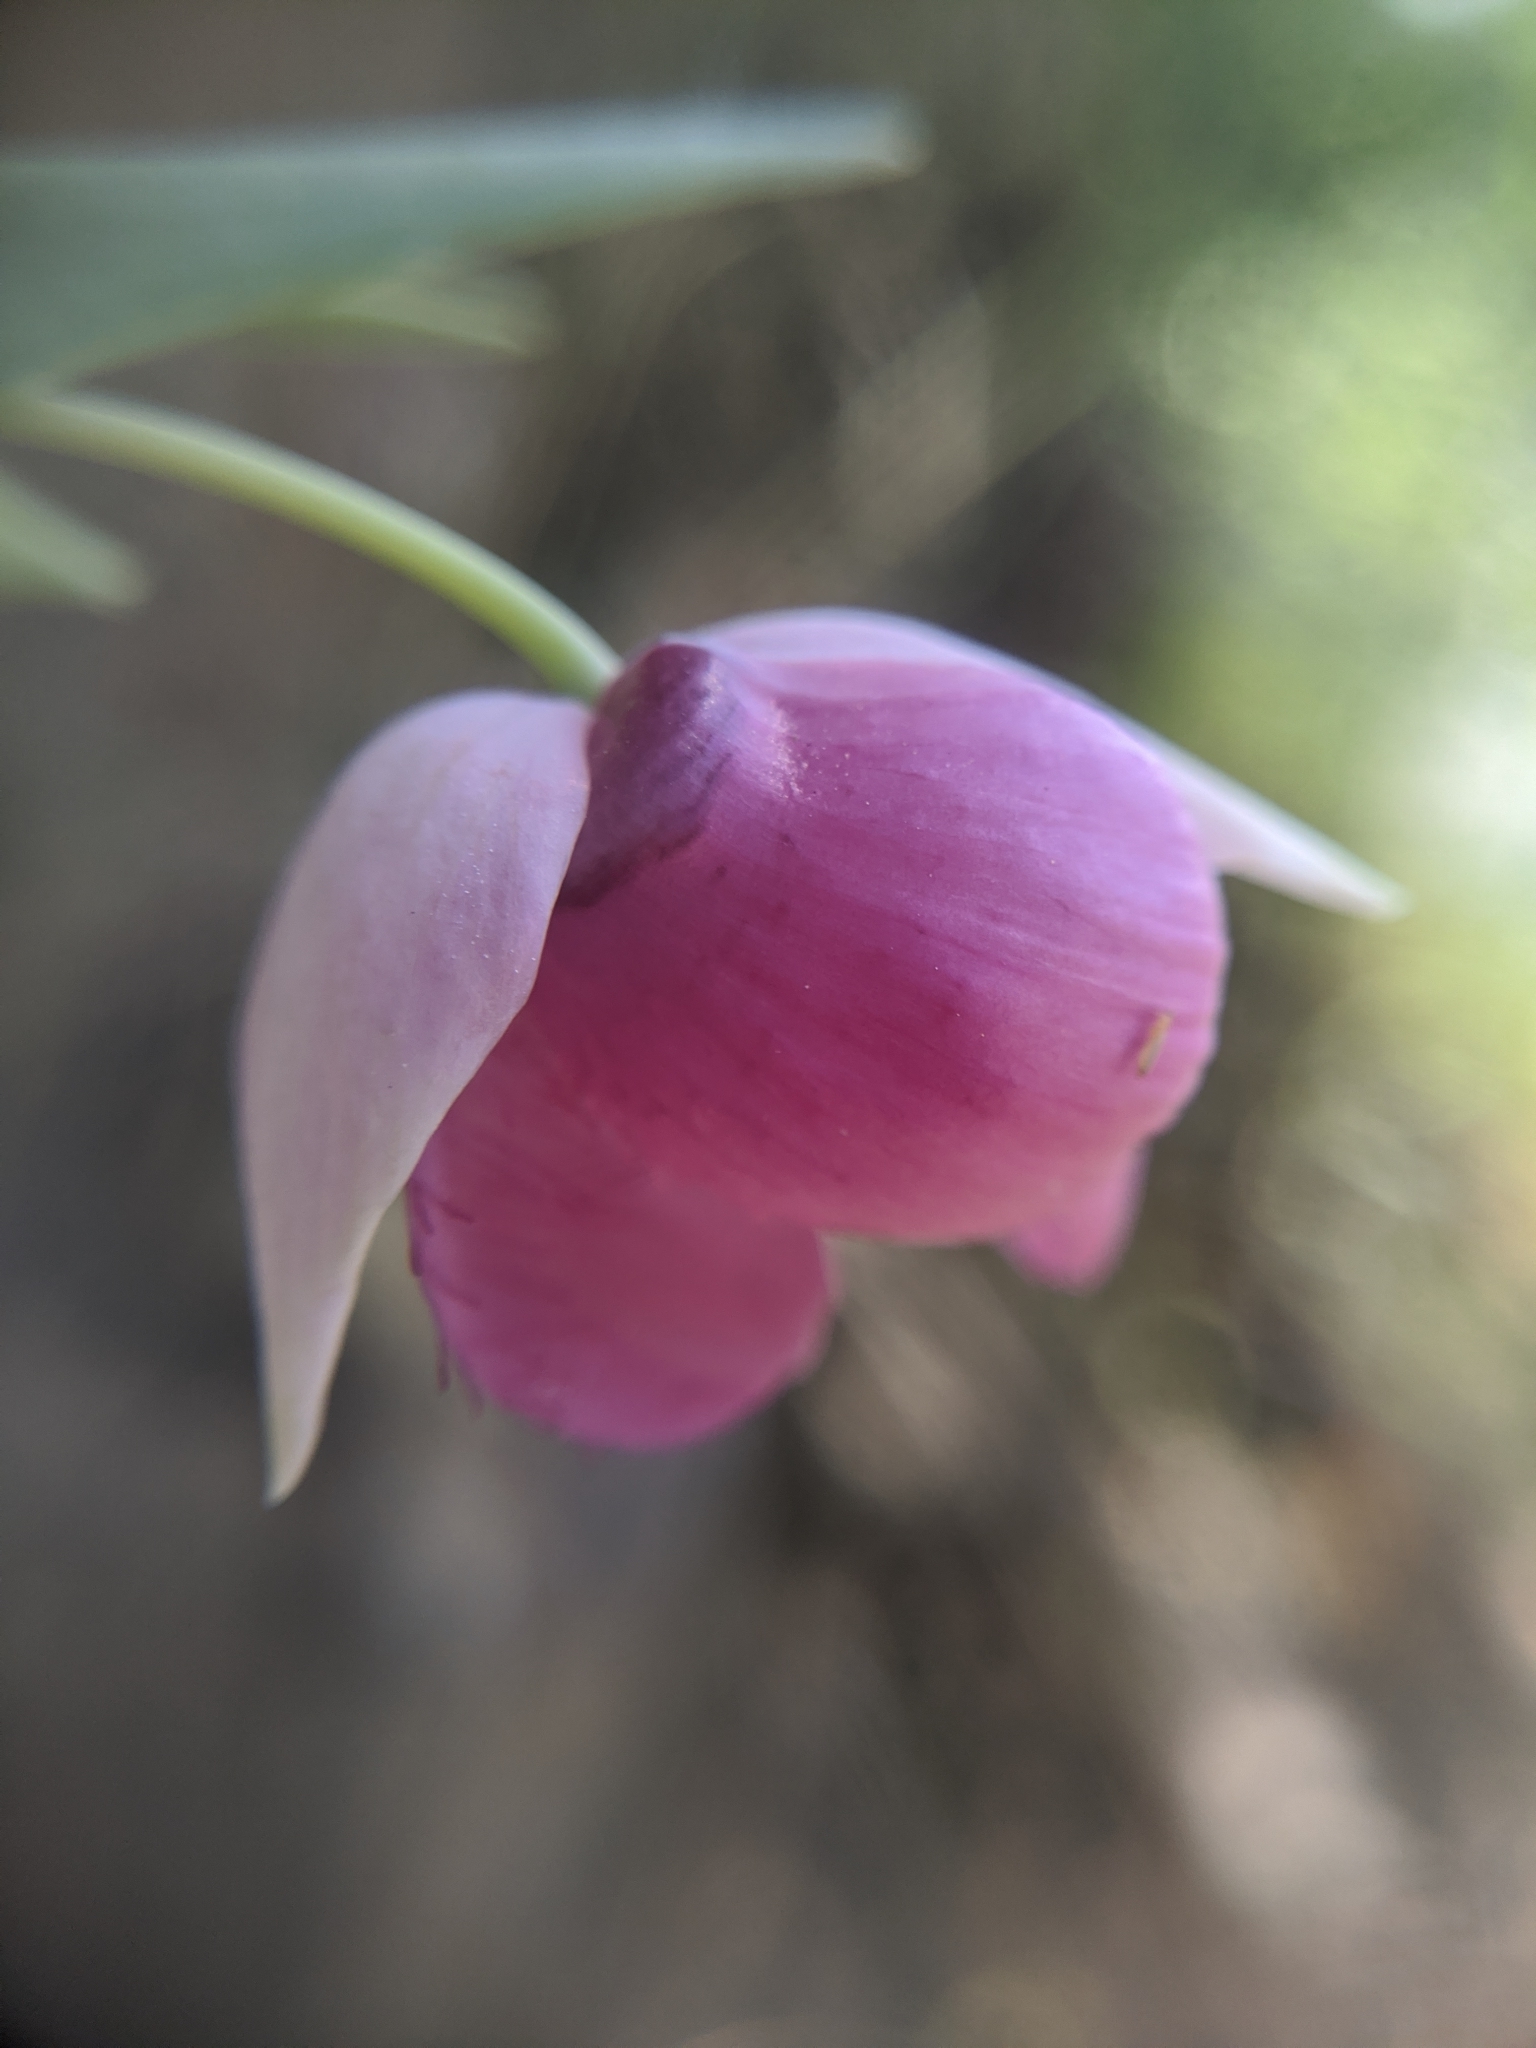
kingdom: Plantae
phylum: Tracheophyta
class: Liliopsida
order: Liliales
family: Liliaceae
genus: Calochortus
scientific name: Calochortus amoenus
